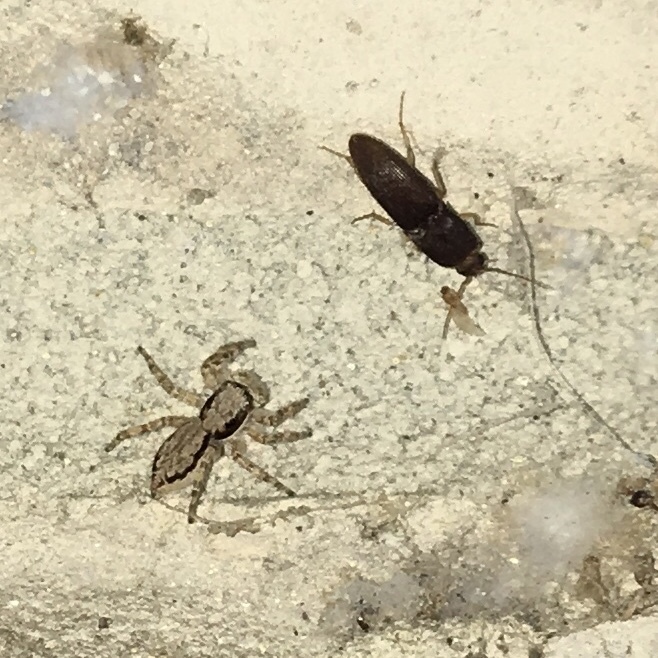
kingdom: Animalia
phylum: Arthropoda
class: Arachnida
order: Araneae
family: Salticidae
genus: Menemerus
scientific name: Menemerus bivittatus
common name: Gray wall jumper
